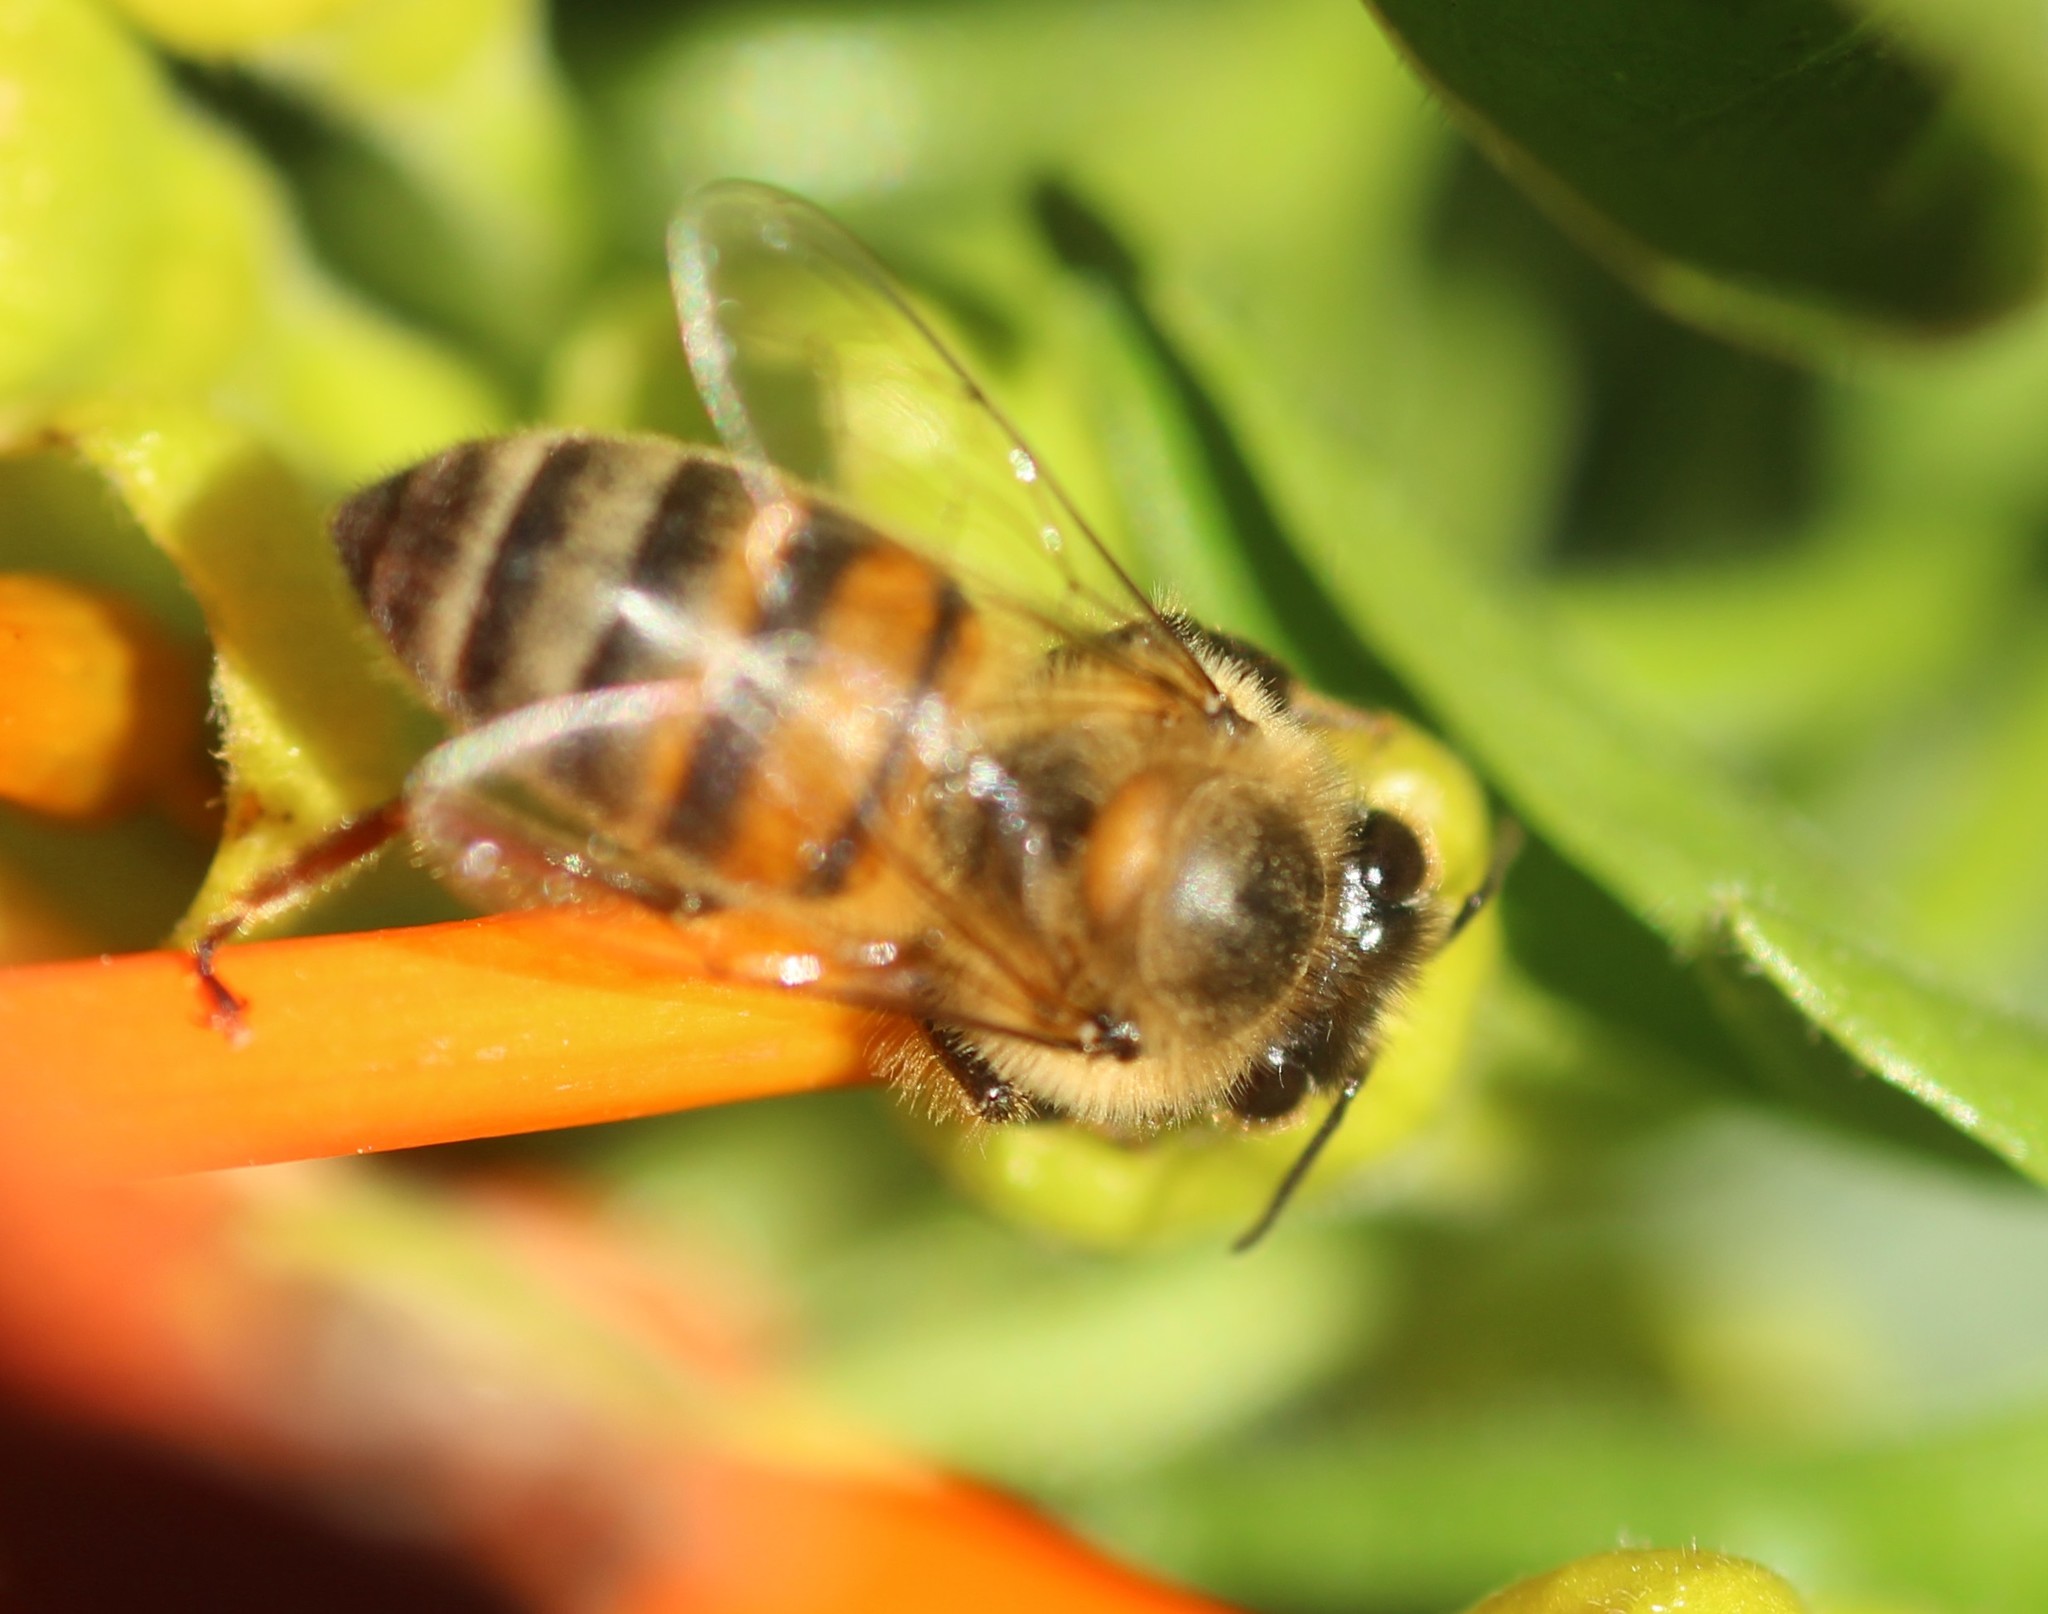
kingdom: Animalia
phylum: Arthropoda
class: Insecta
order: Hymenoptera
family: Apidae
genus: Apis
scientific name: Apis mellifera
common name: Honey bee
